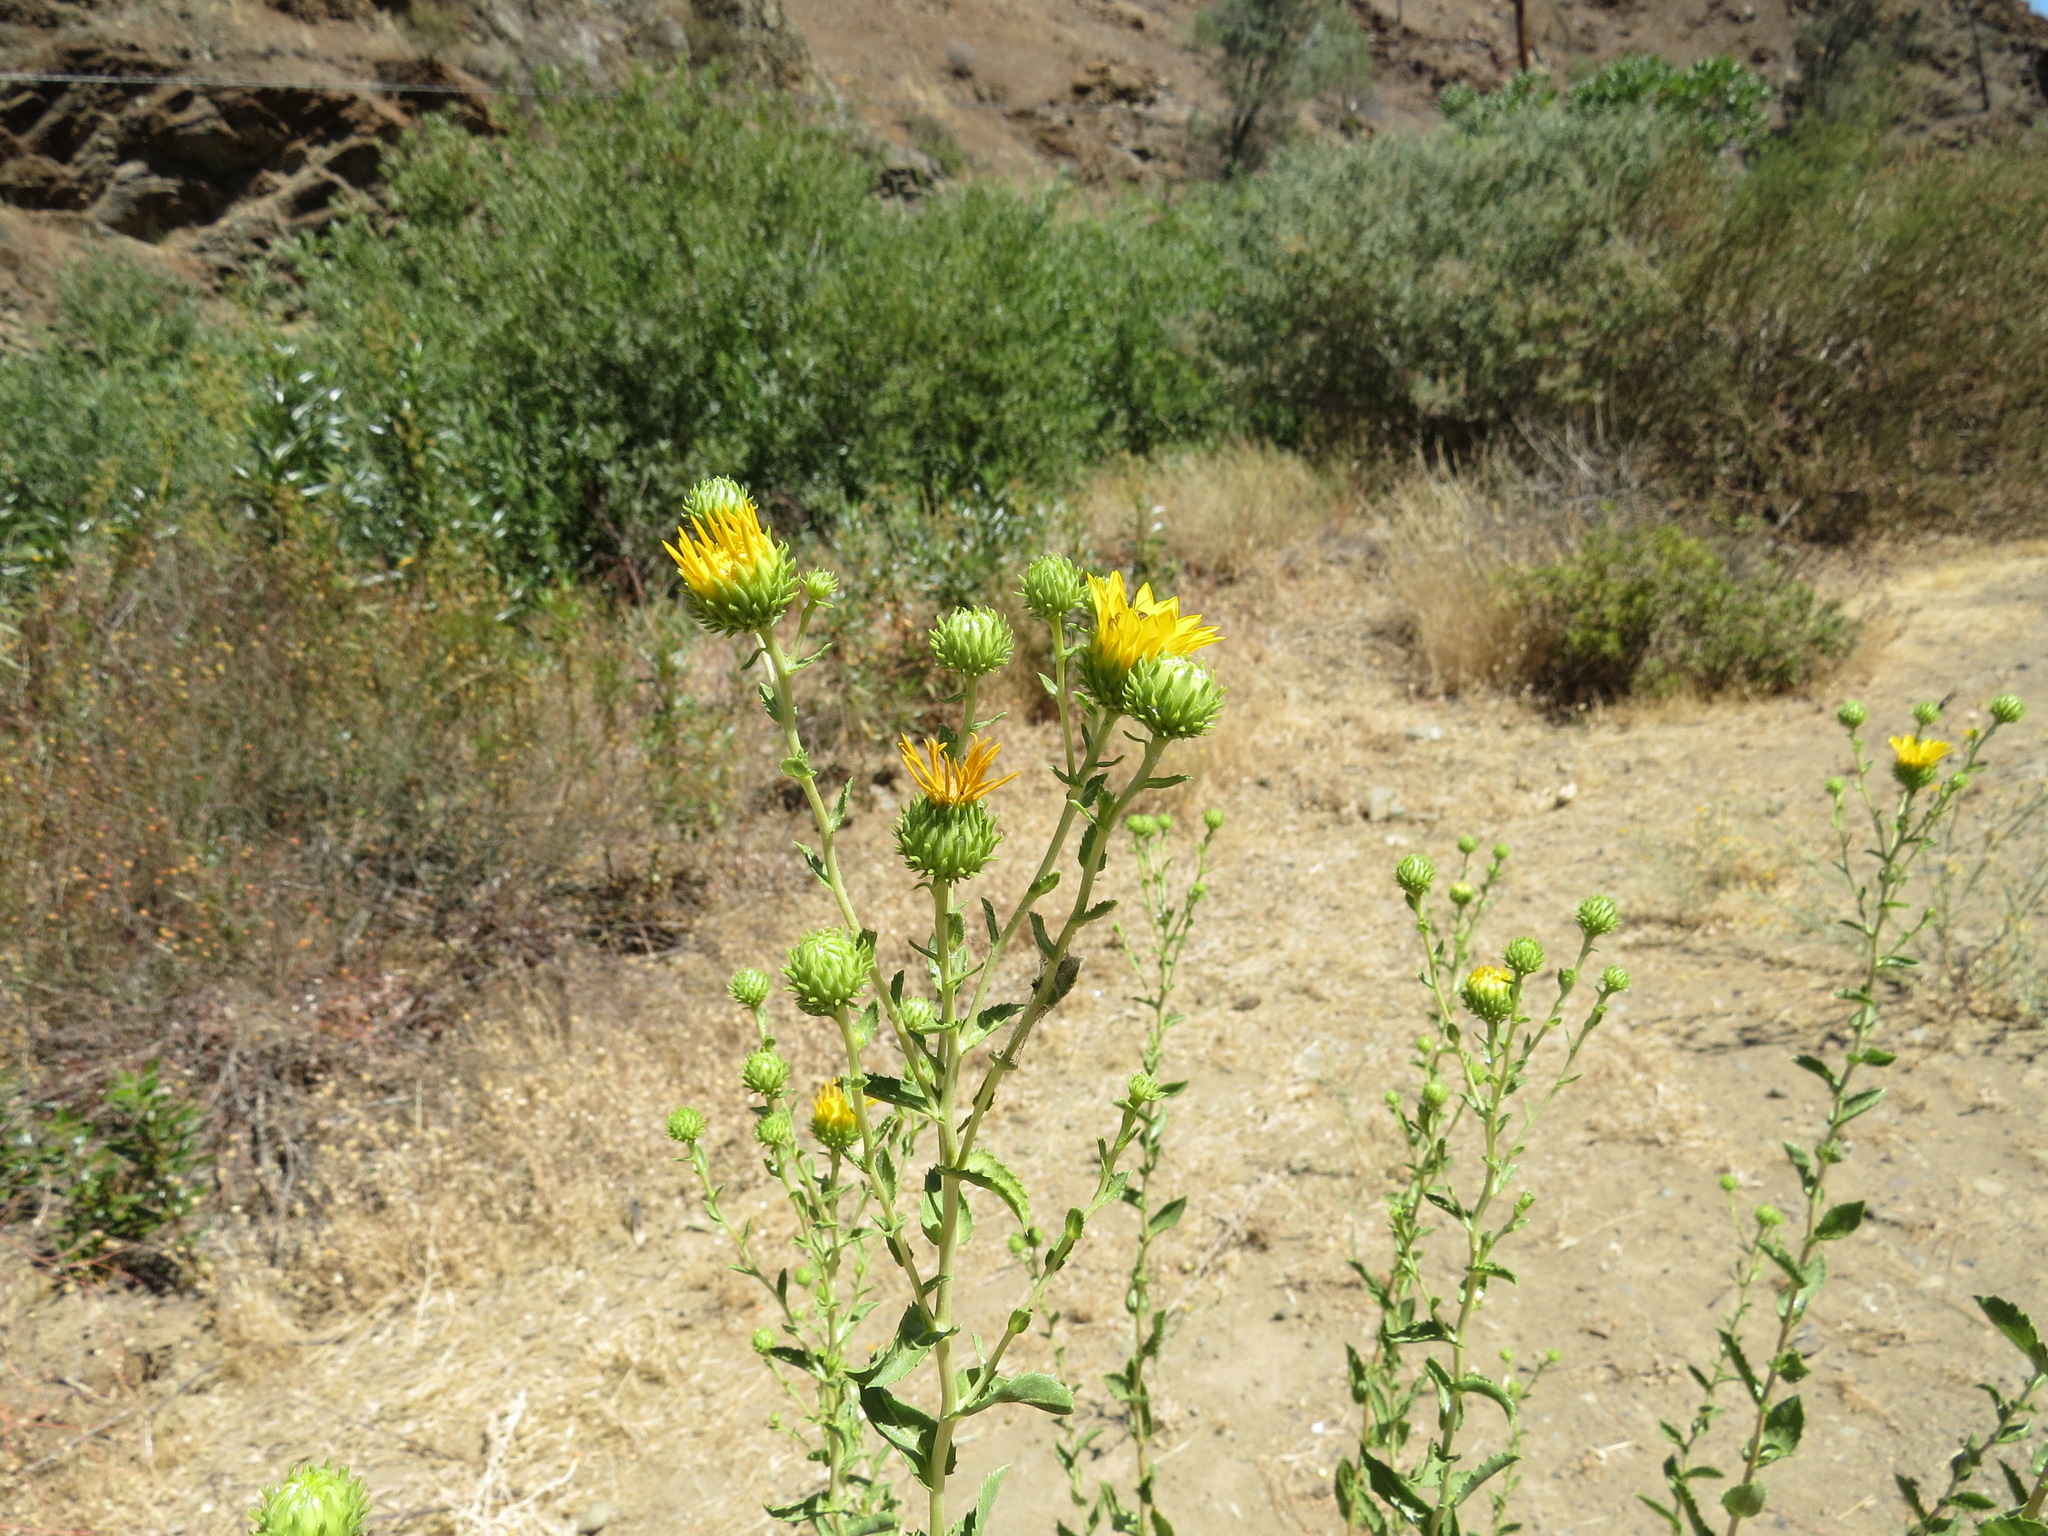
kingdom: Plantae
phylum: Tracheophyta
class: Magnoliopsida
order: Asterales
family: Asteraceae
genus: Grindelia
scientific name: Grindelia hirsutula
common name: Hairy gumweed
